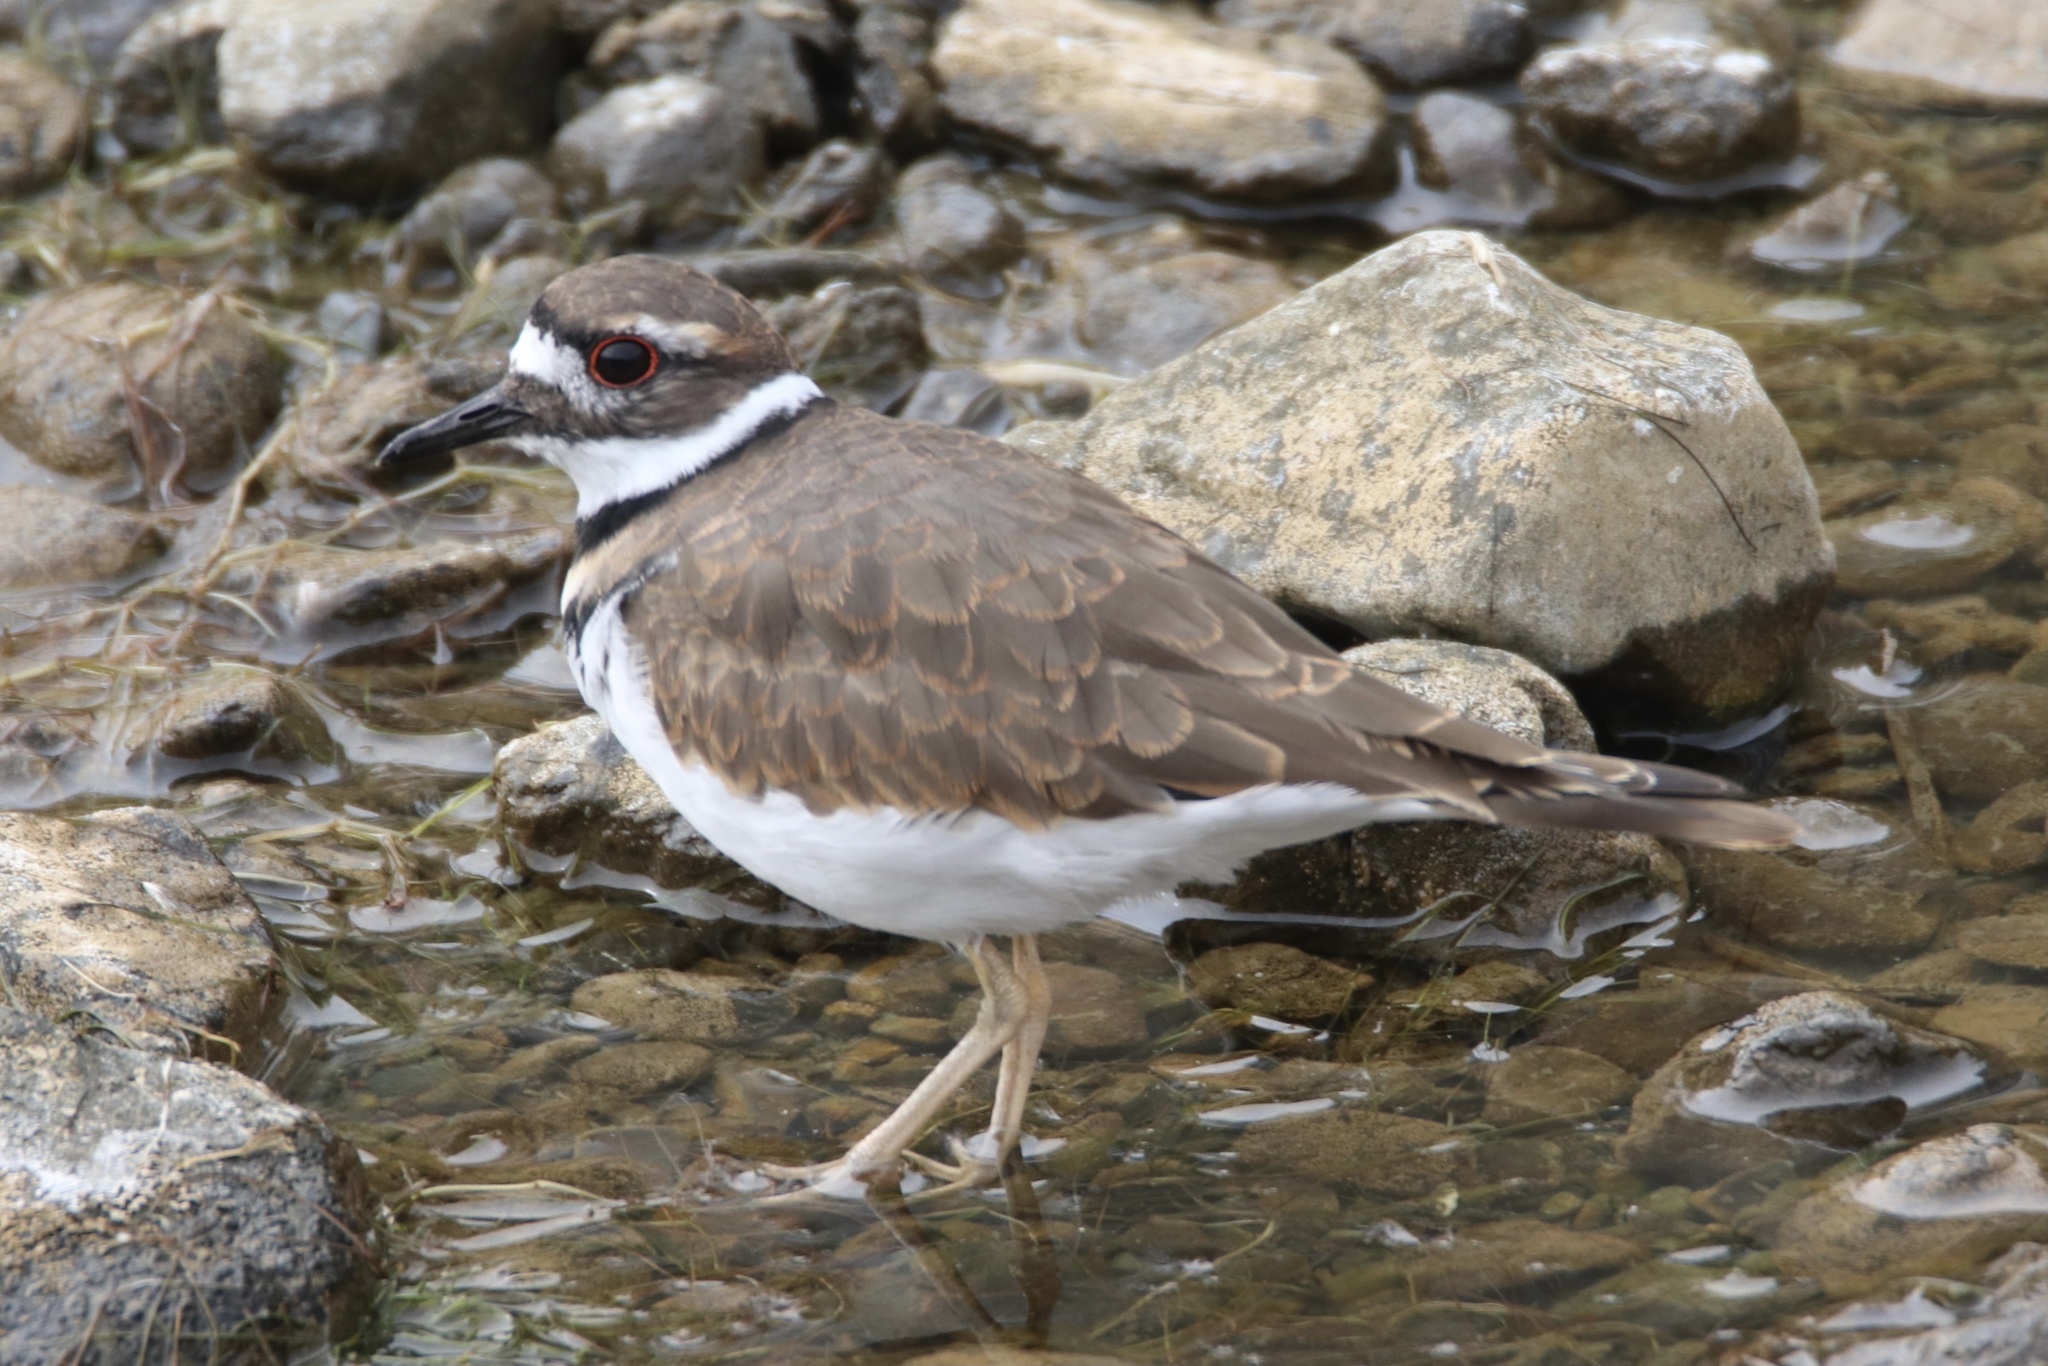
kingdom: Animalia
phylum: Chordata
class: Aves
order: Charadriiformes
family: Charadriidae
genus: Charadrius
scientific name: Charadrius vociferus
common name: Killdeer
